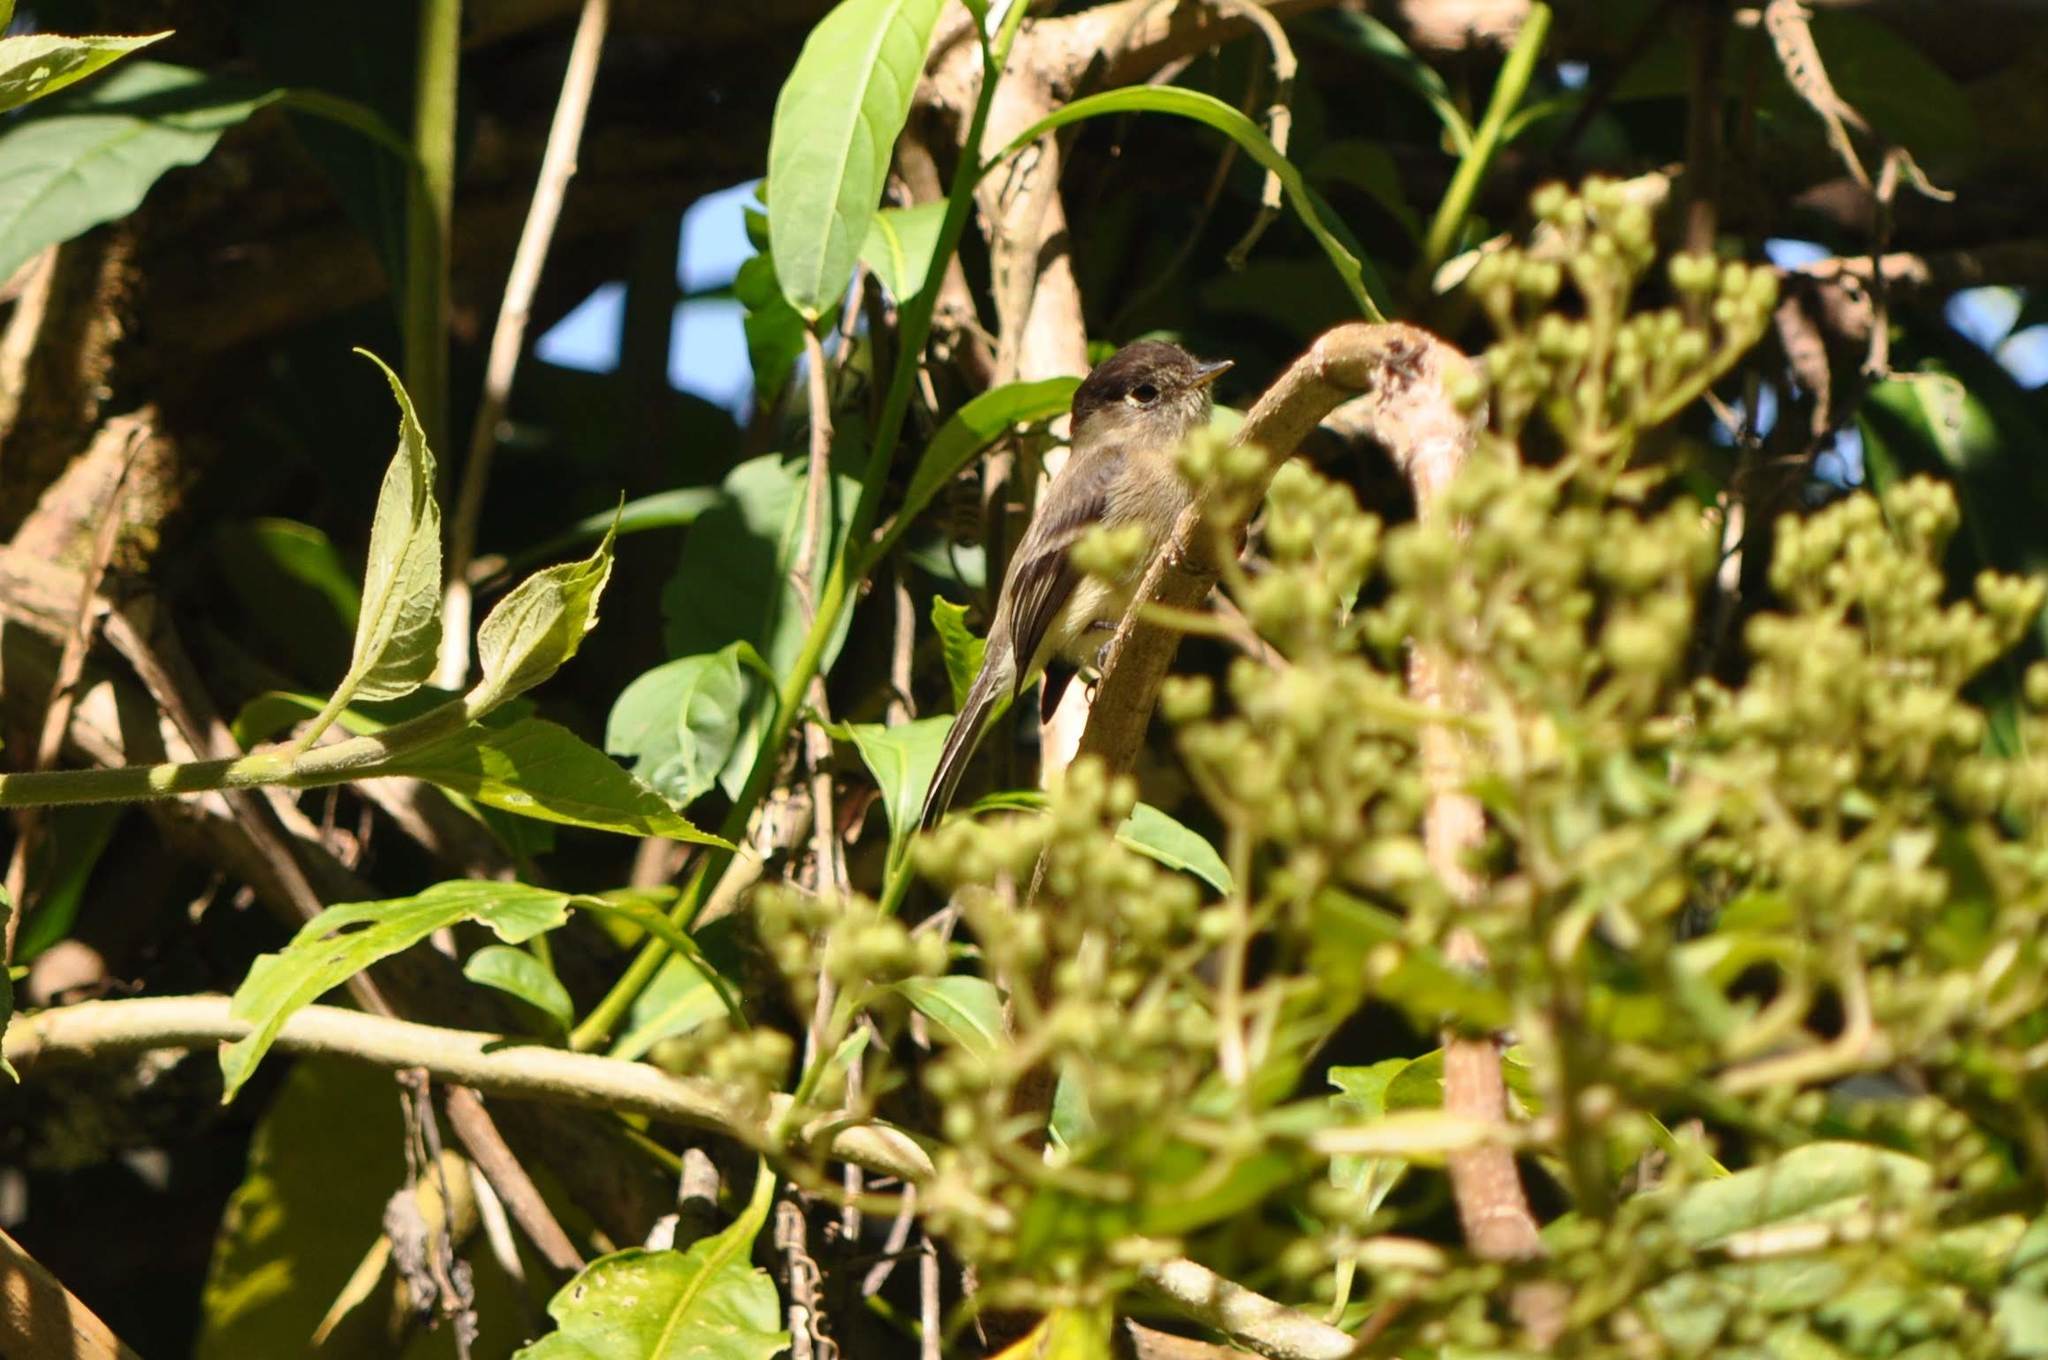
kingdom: Animalia
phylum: Chordata
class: Aves
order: Passeriformes
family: Tyrannidae
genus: Empidonax
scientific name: Empidonax atriceps
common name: Black-capped flycatcher
